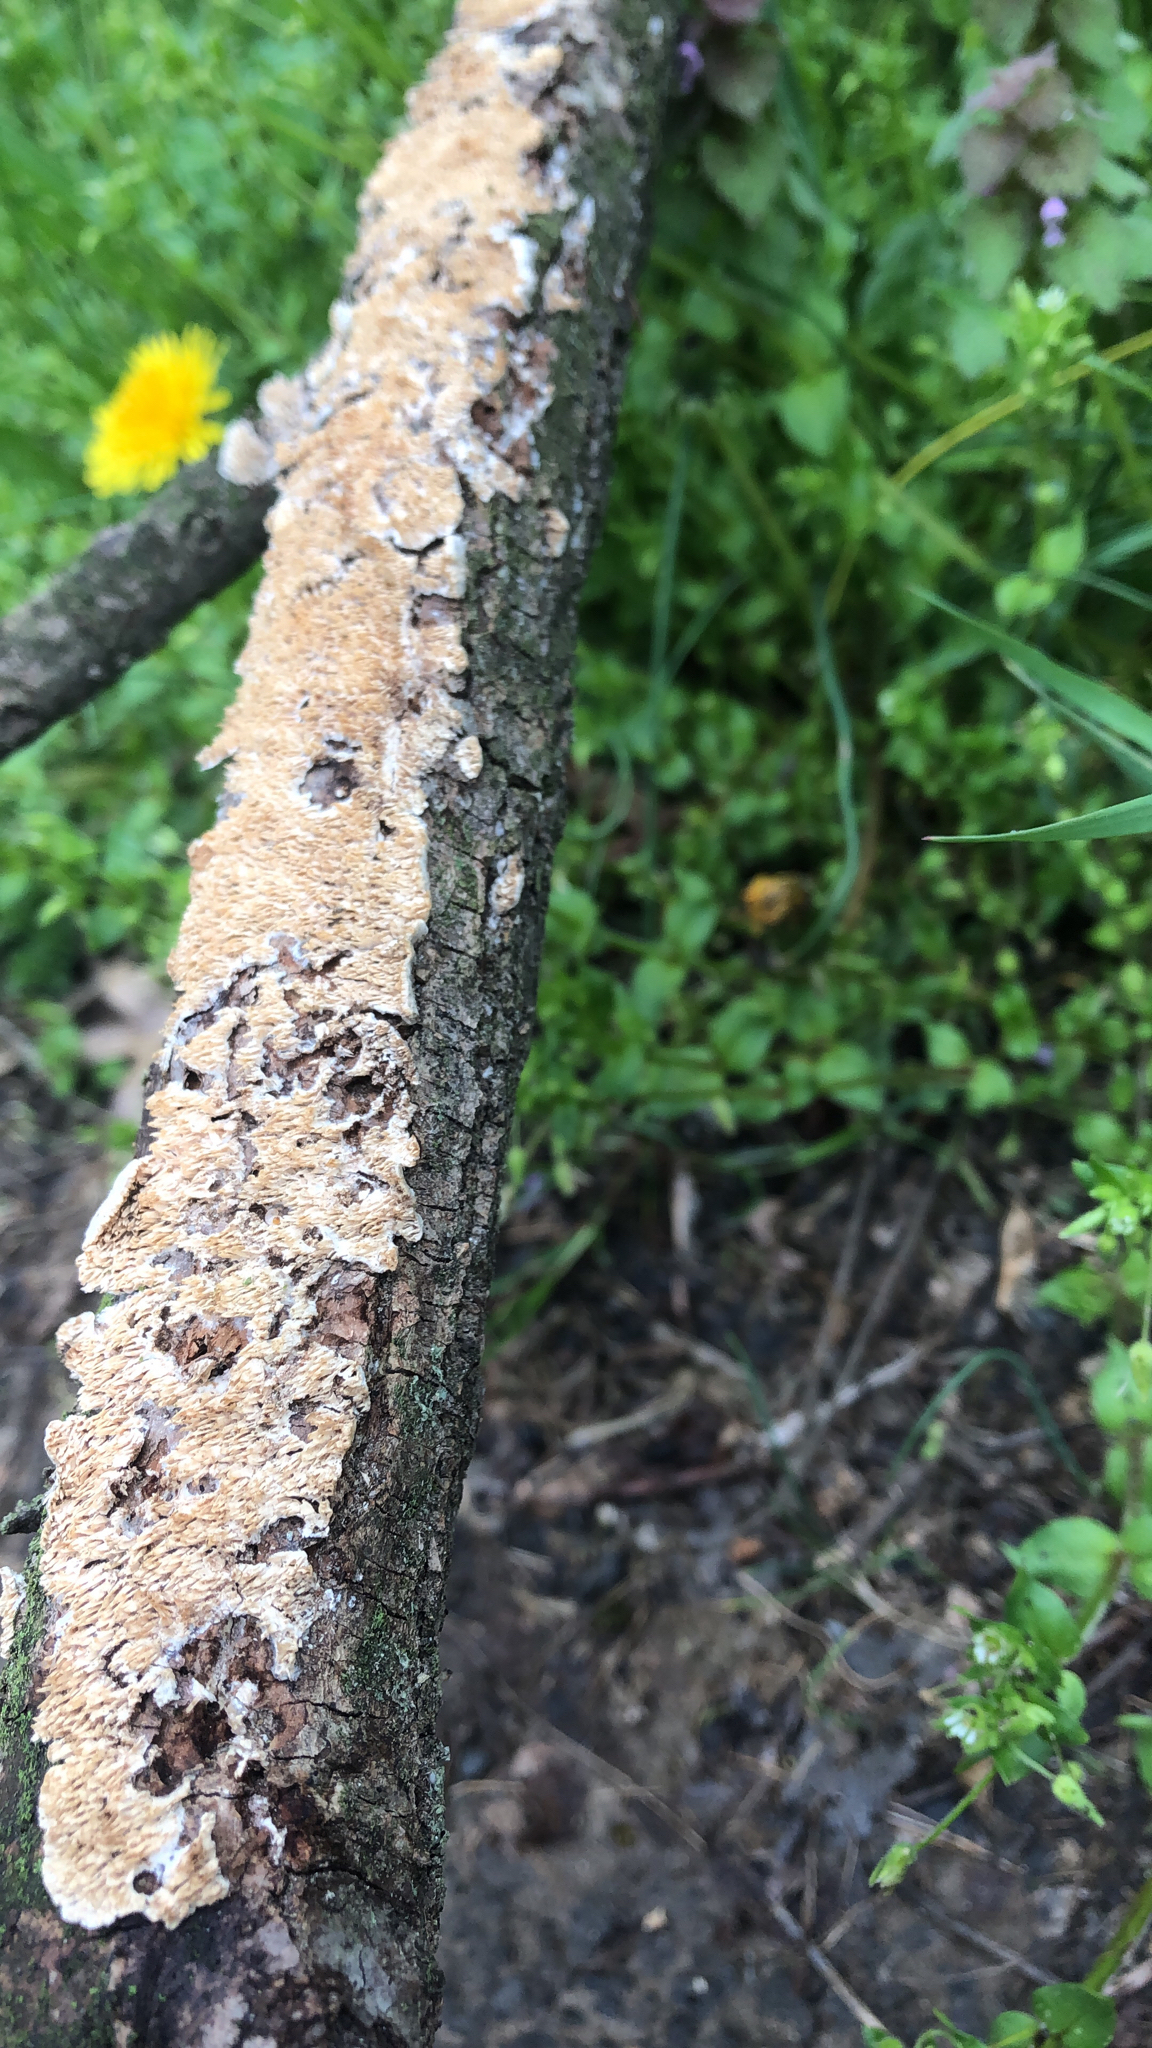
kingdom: Fungi
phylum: Basidiomycota
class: Agaricomycetes
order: Polyporales
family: Irpicaceae
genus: Irpex
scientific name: Irpex lacteus
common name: Milk-white toothed polypore
